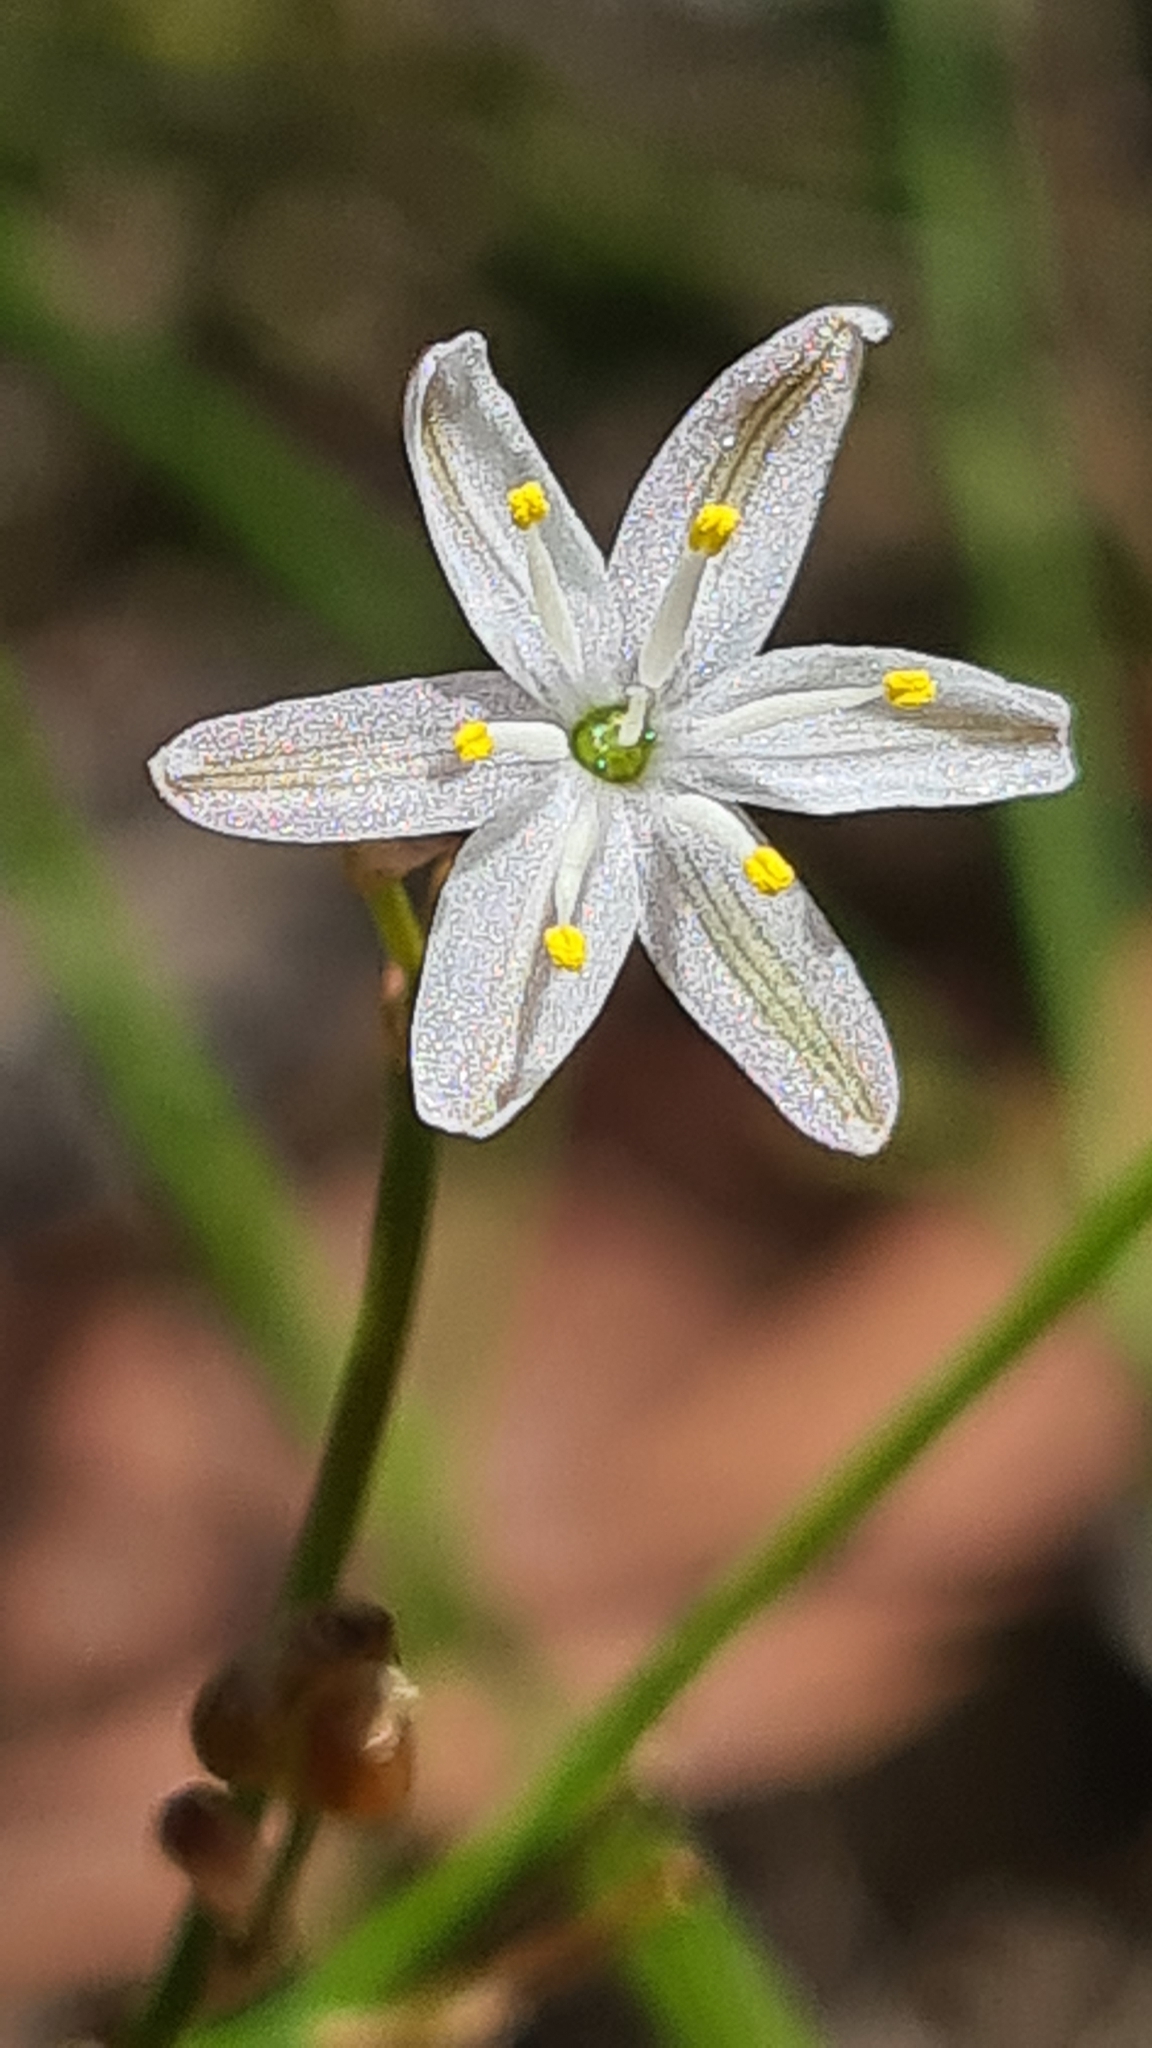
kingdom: Plantae
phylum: Tracheophyta
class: Liliopsida
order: Asparagales
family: Asphodelaceae
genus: Caesia
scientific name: Caesia parviflora
